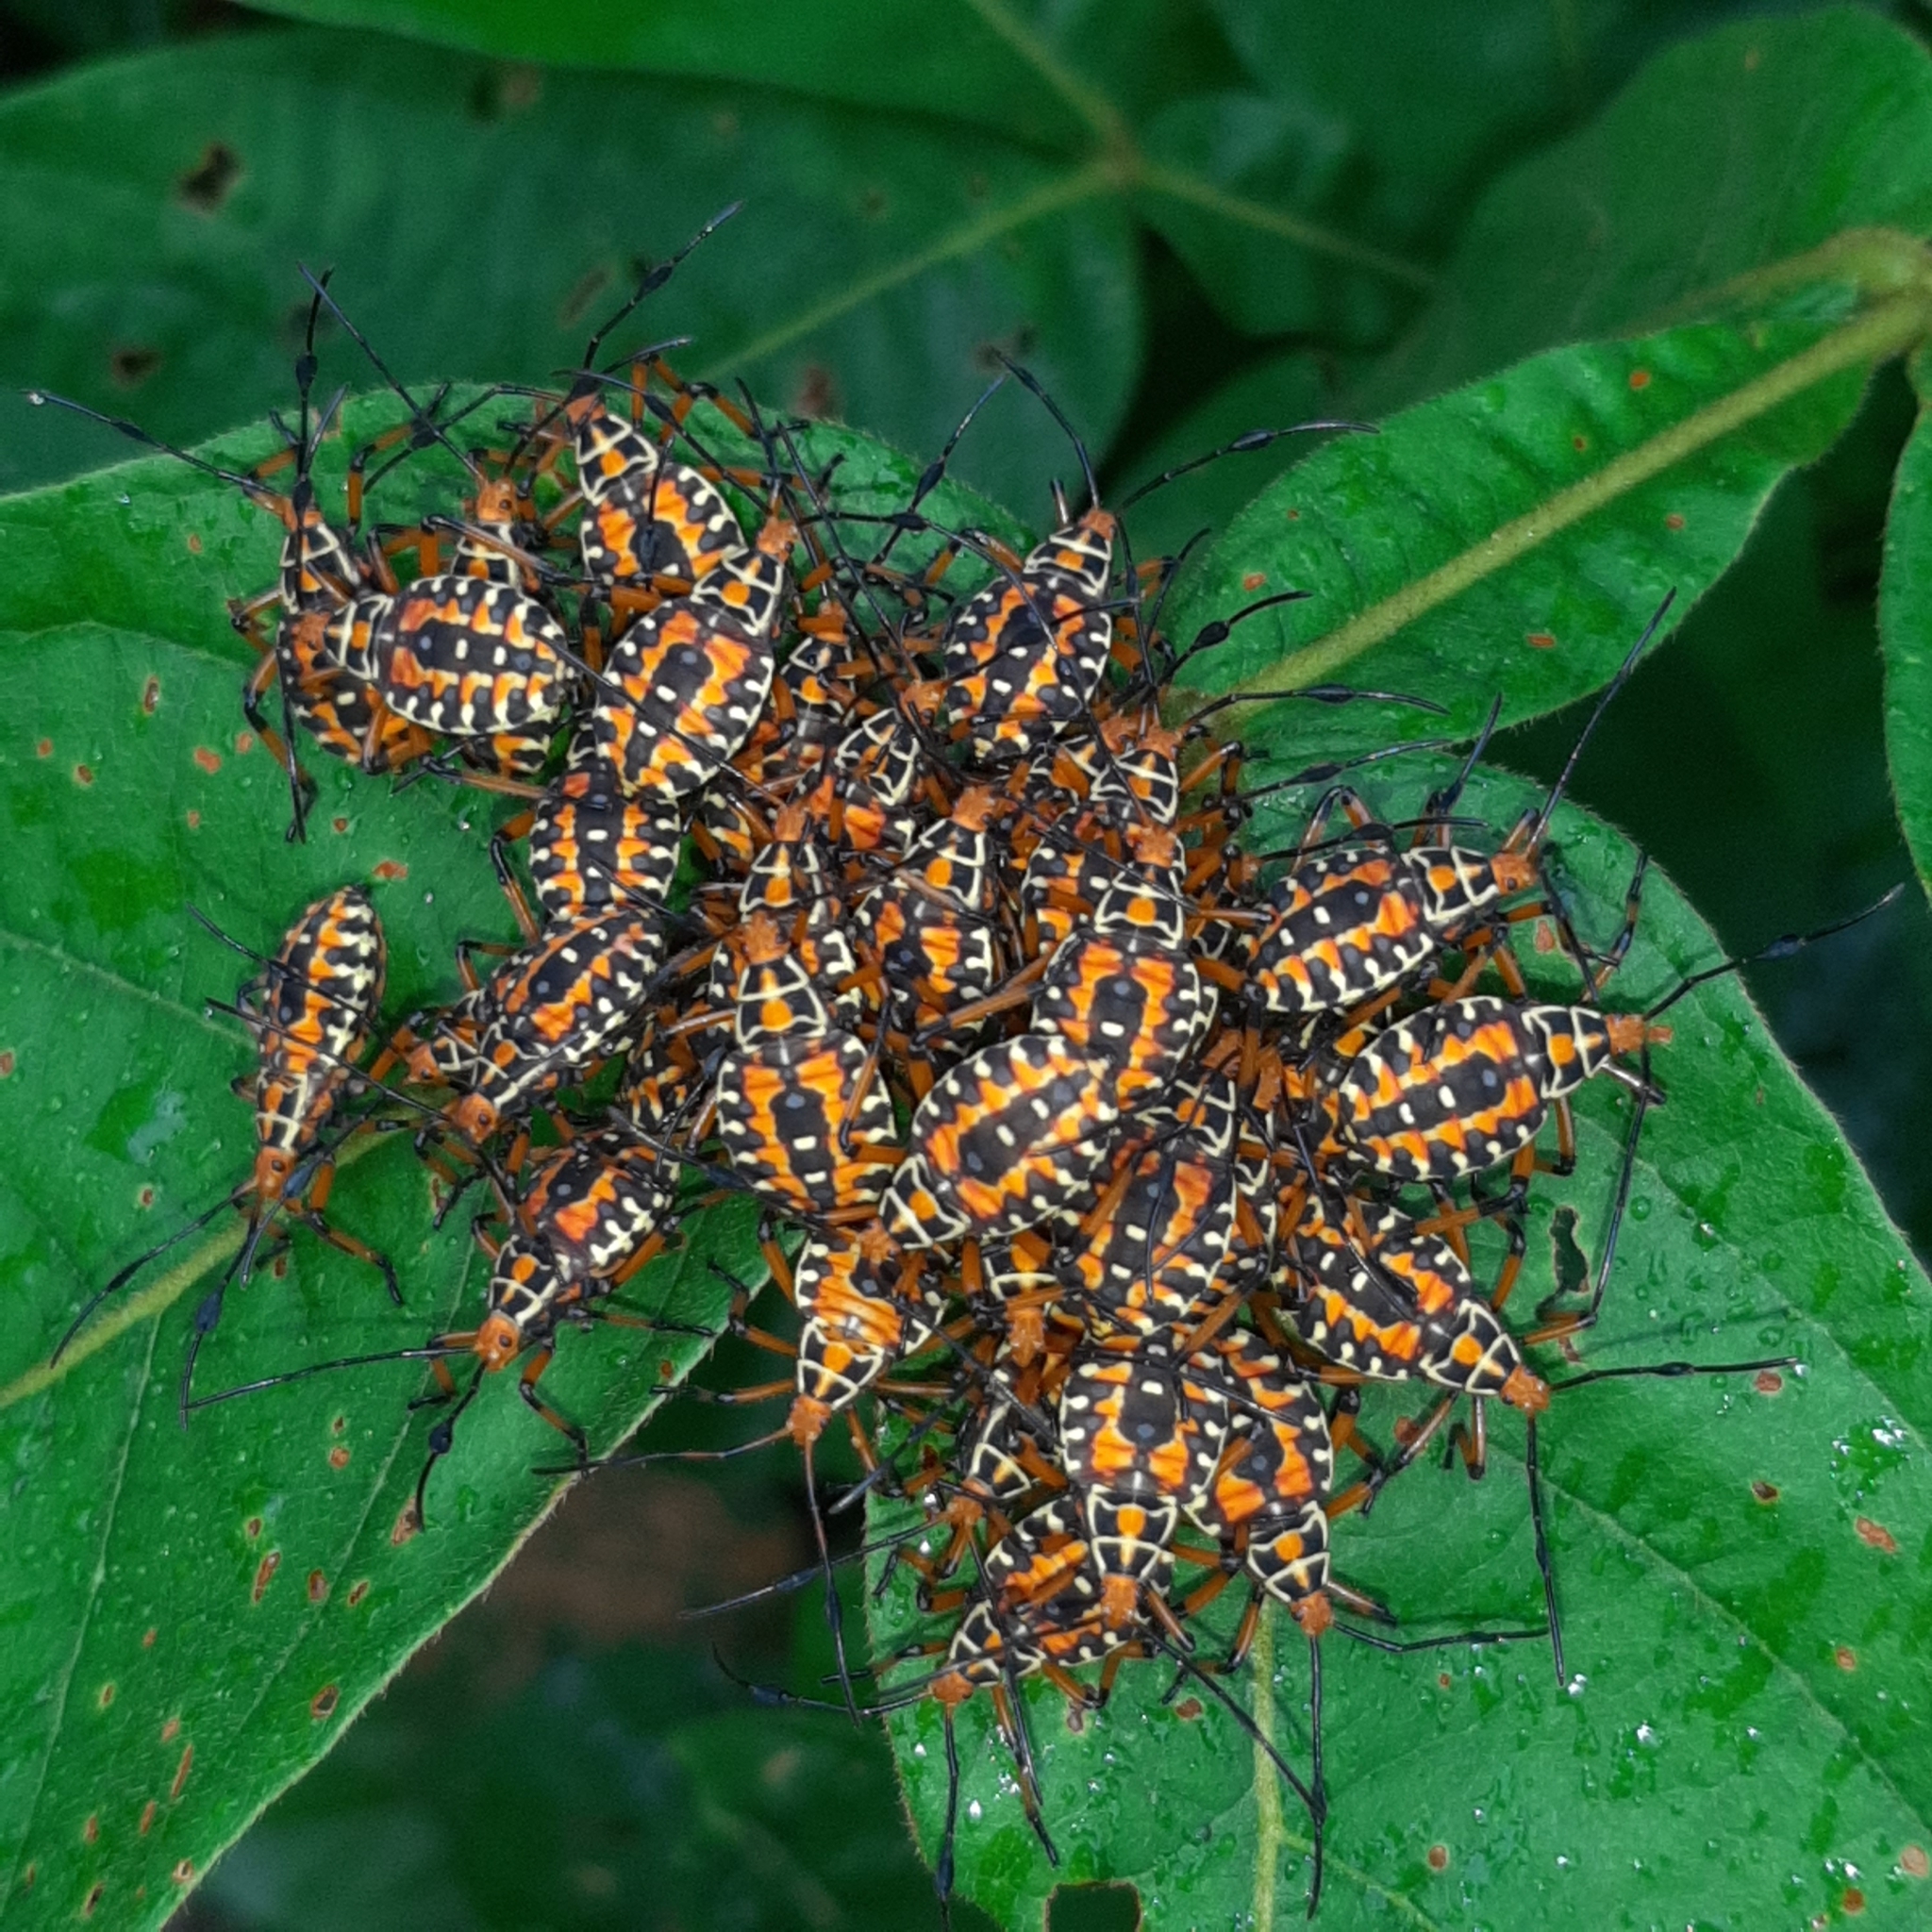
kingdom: Animalia
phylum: Arthropoda
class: Insecta
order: Hemiptera
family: Coreidae
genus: Pachylis
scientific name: Pachylis nervosus
